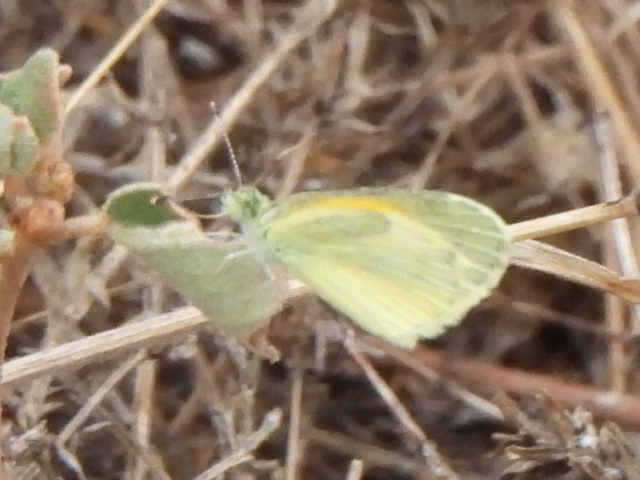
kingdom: Animalia
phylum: Arthropoda
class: Insecta
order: Lepidoptera
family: Pieridae
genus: Nathalis
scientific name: Nathalis iole
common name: Dainty sulphur
